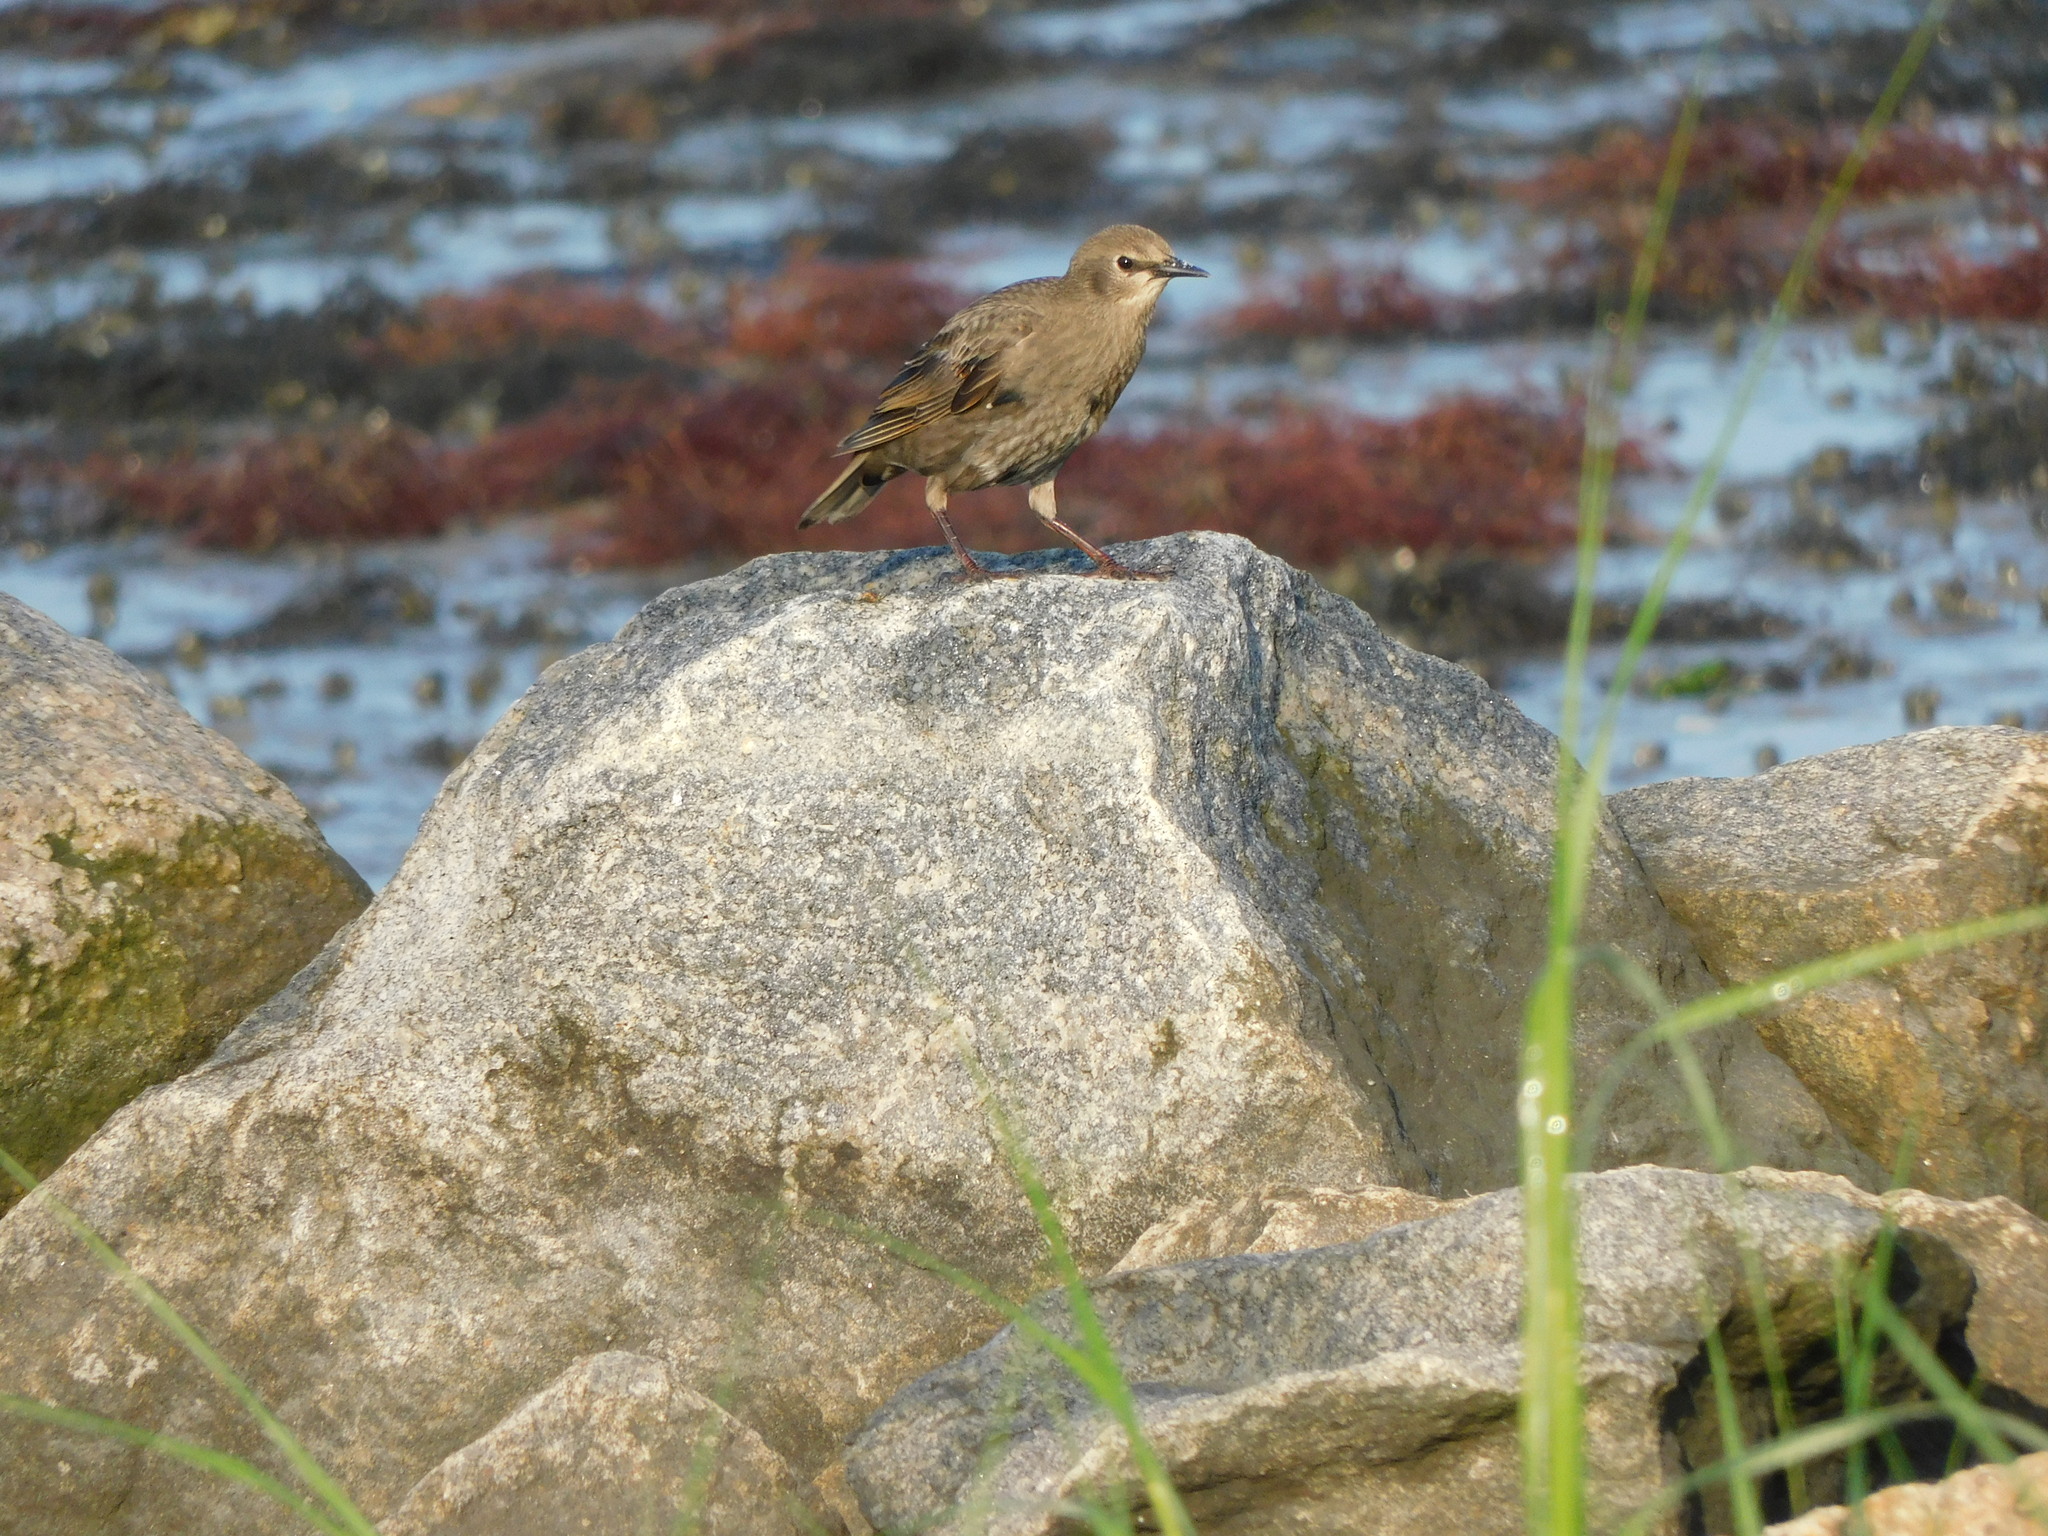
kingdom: Animalia
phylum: Chordata
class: Aves
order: Passeriformes
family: Sturnidae
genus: Sturnus
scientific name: Sturnus vulgaris
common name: Common starling
